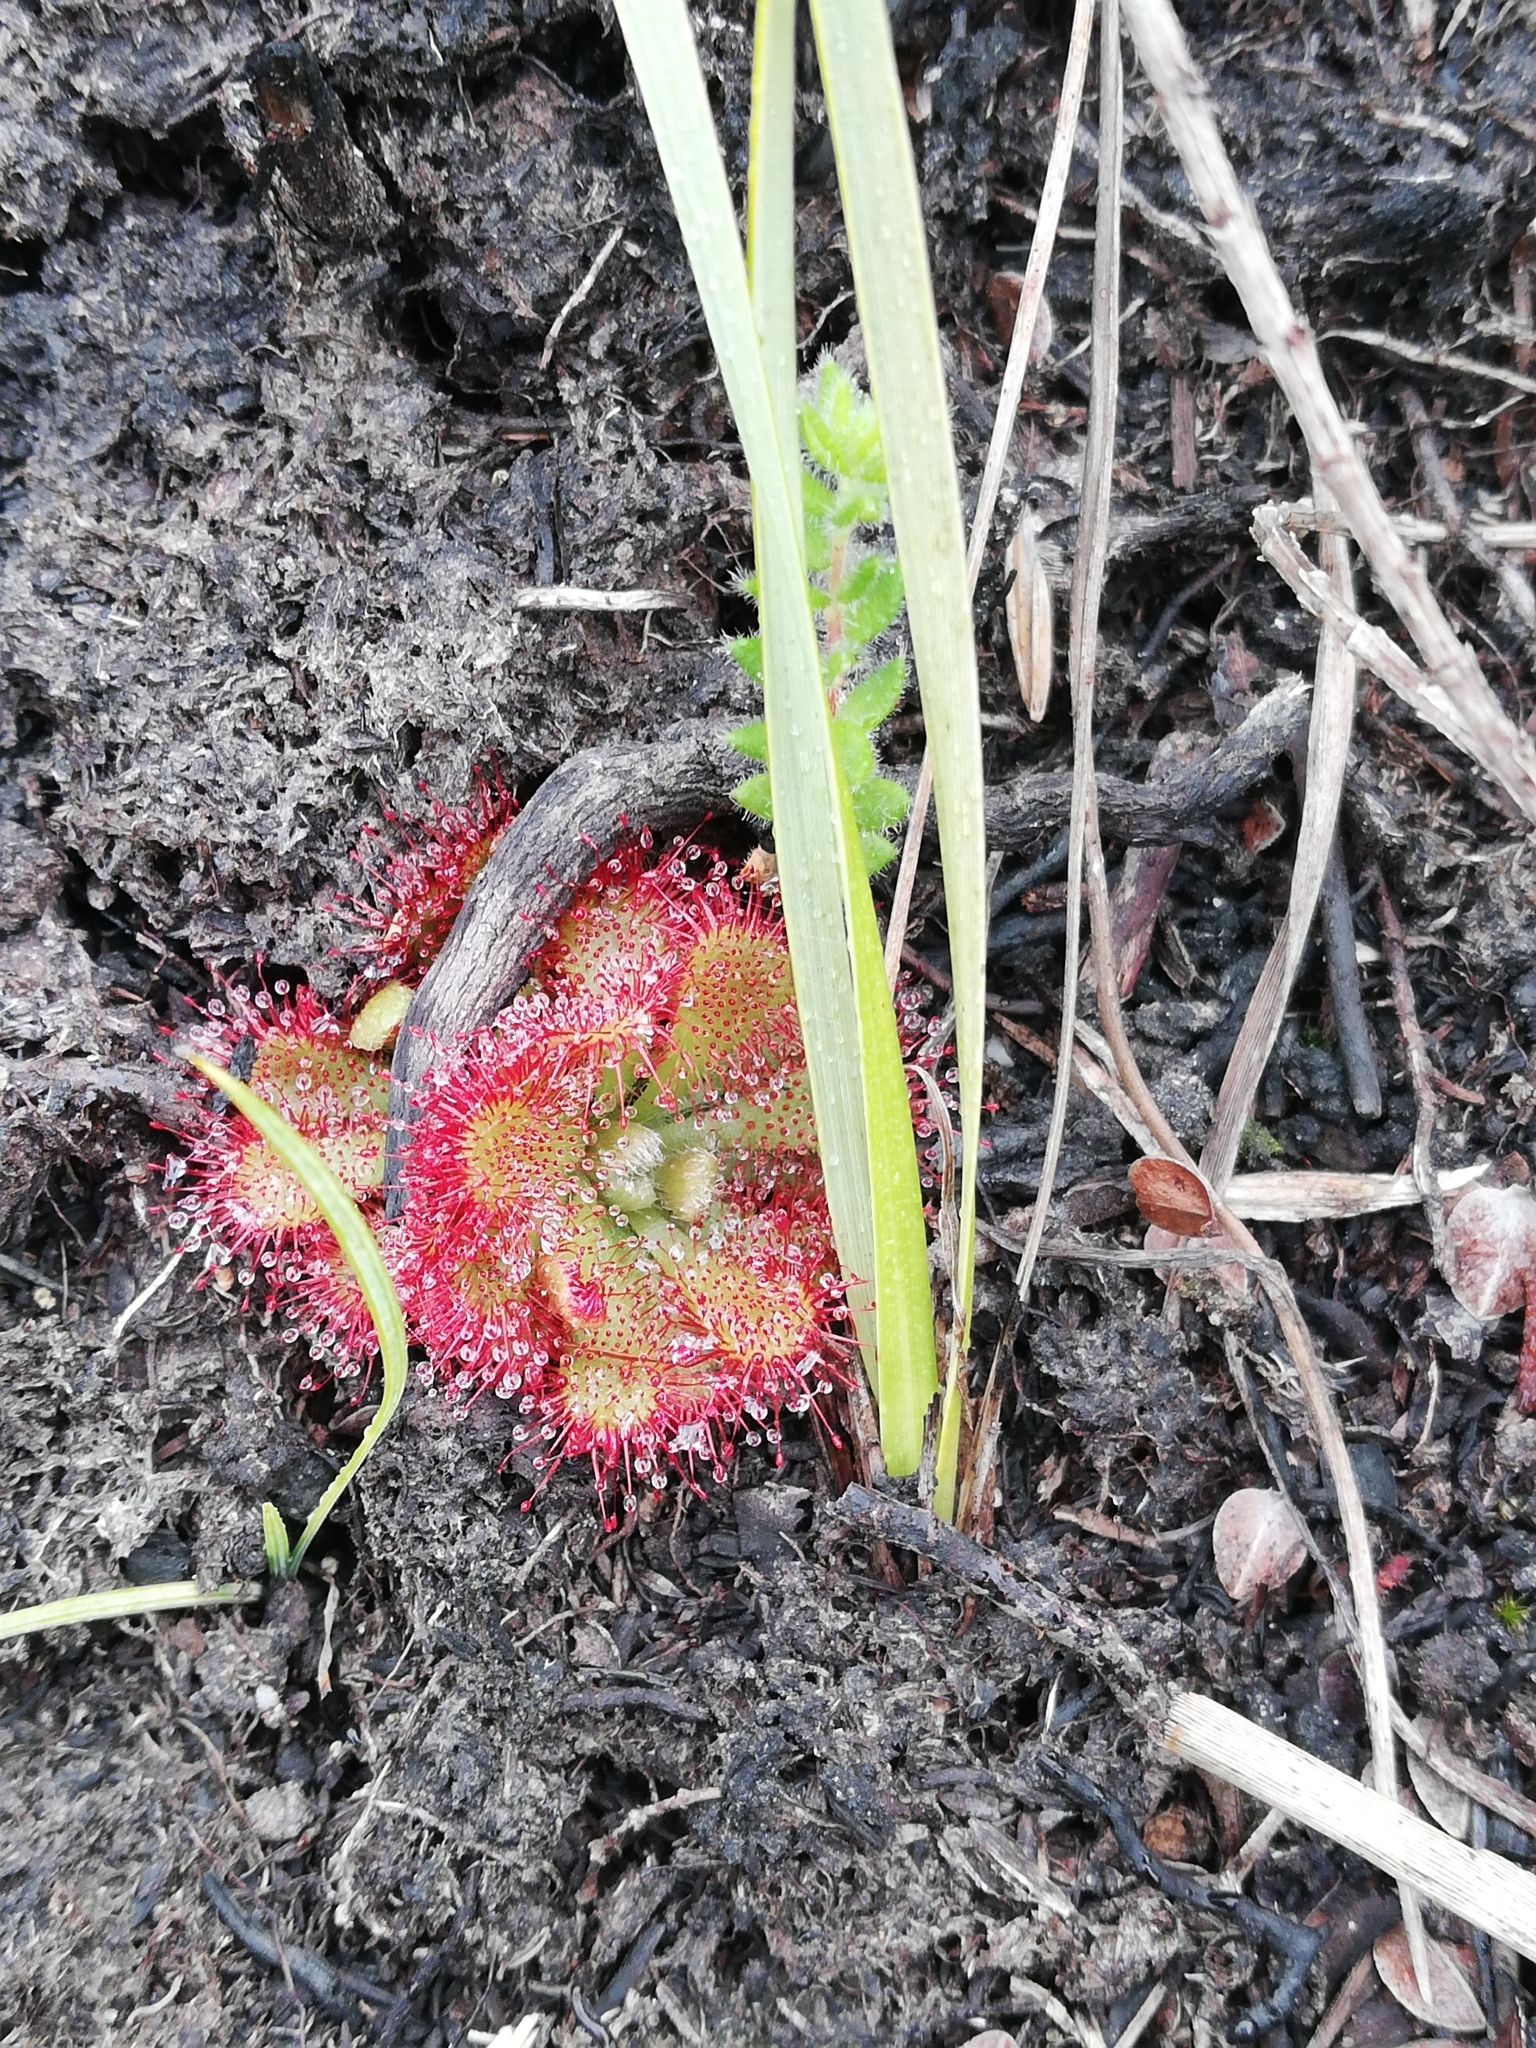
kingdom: Plantae
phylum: Tracheophyta
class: Magnoliopsida
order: Caryophyllales
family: Droseraceae
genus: Drosera
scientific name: Drosera aliciae
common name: Alice sundew
